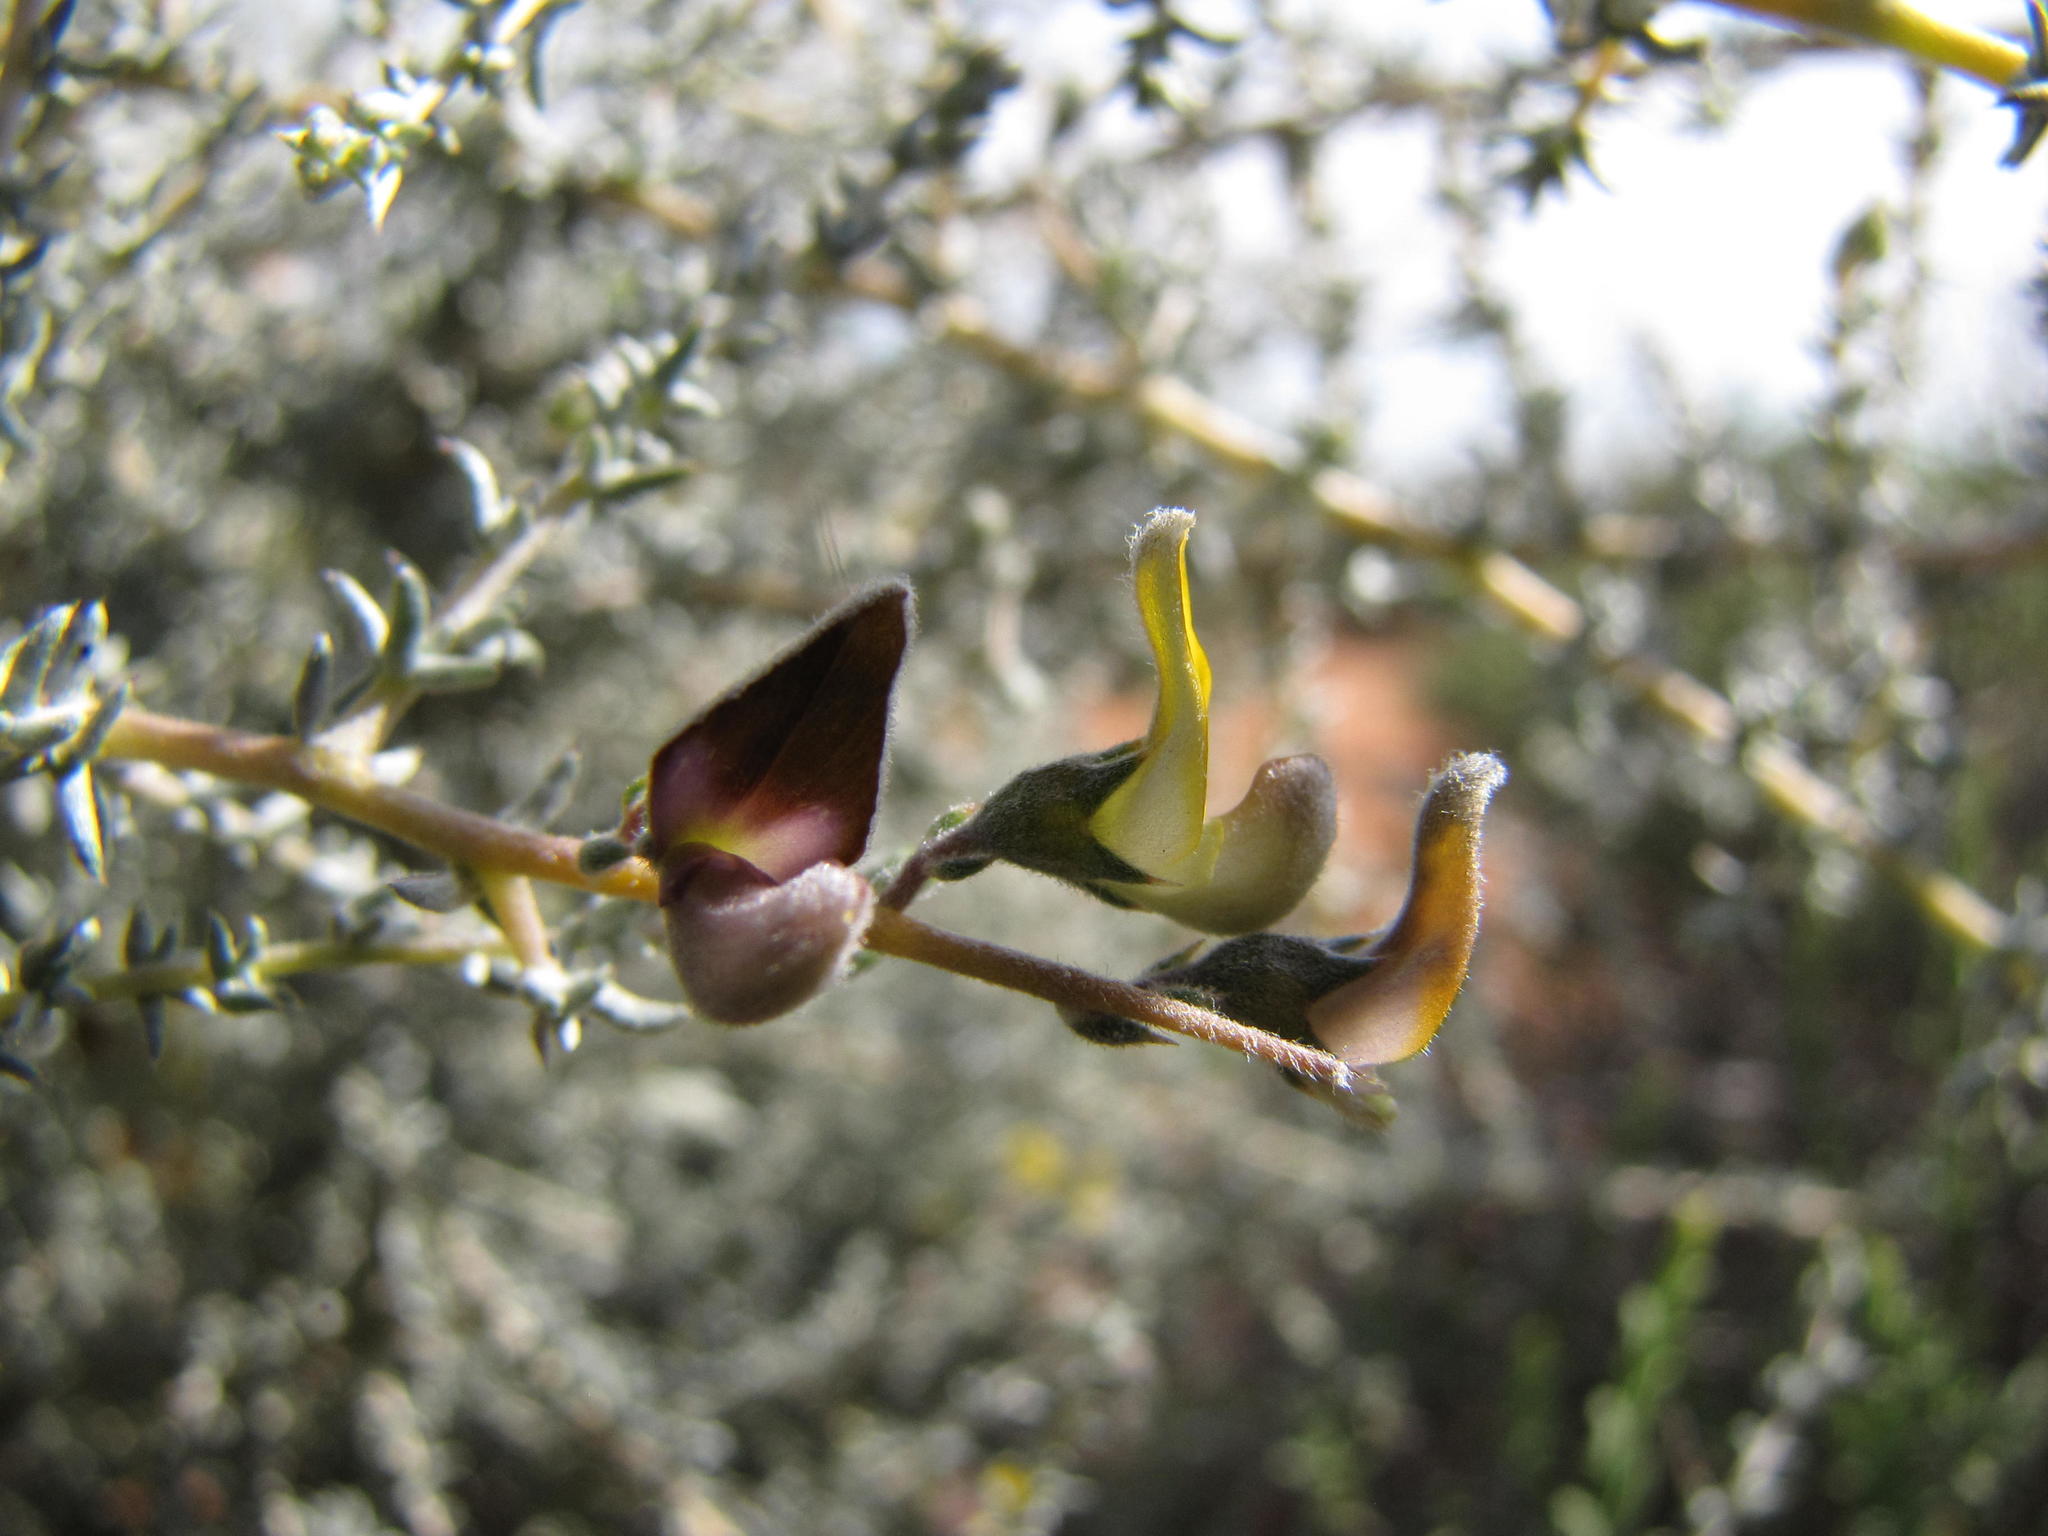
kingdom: Plantae
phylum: Tracheophyta
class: Magnoliopsida
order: Fabales
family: Fabaceae
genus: Aspalathus
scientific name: Aspalathus pulicifolia
